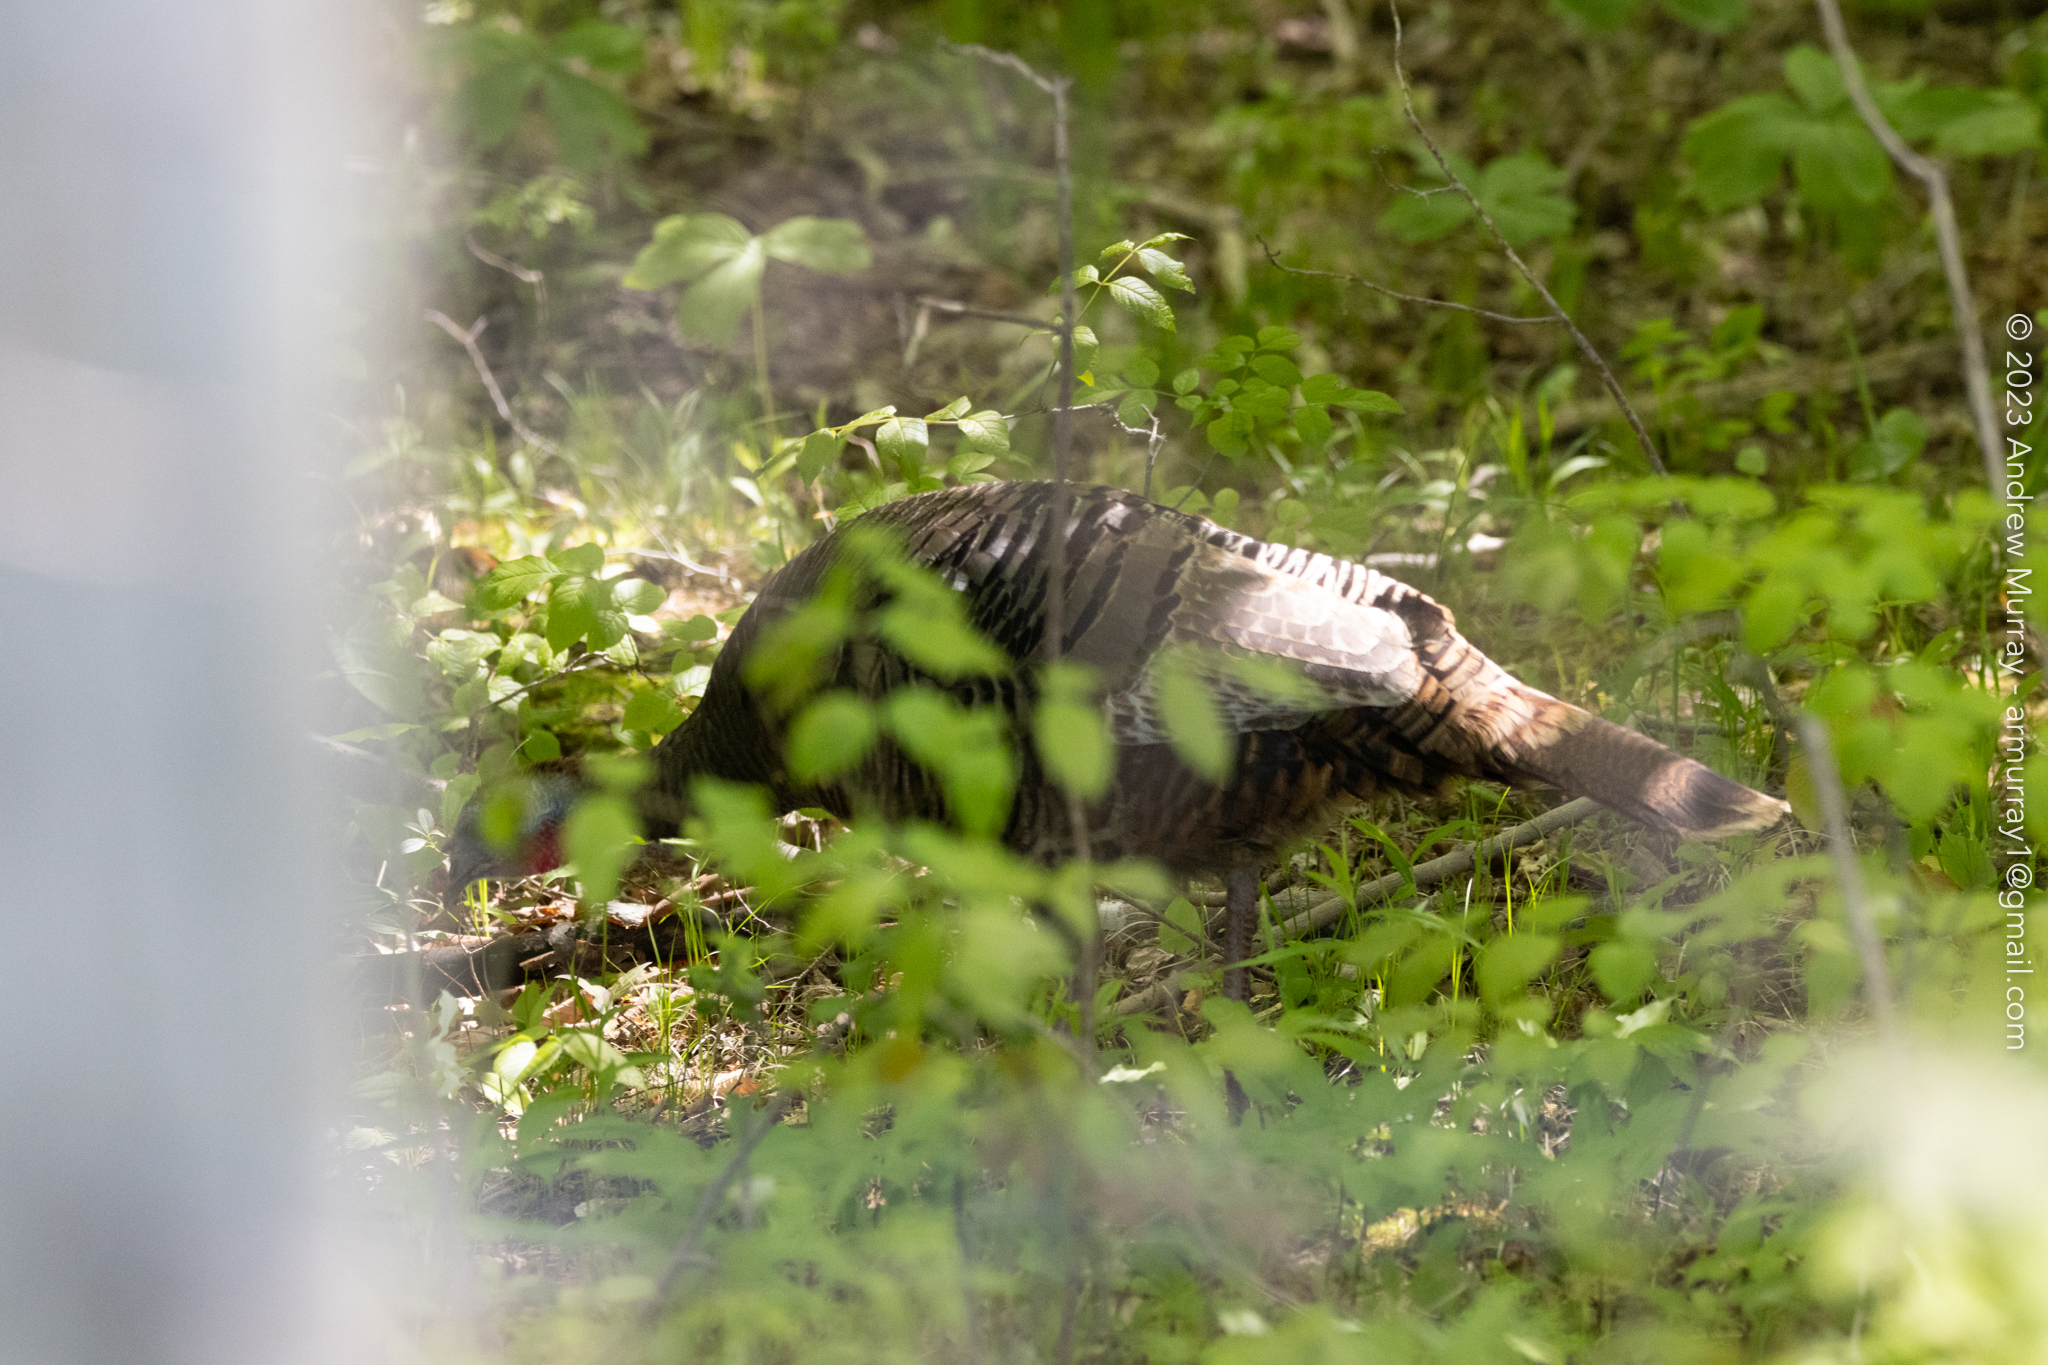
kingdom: Animalia
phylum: Chordata
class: Aves
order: Galliformes
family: Phasianidae
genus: Meleagris
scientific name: Meleagris gallopavo
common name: Wild turkey
